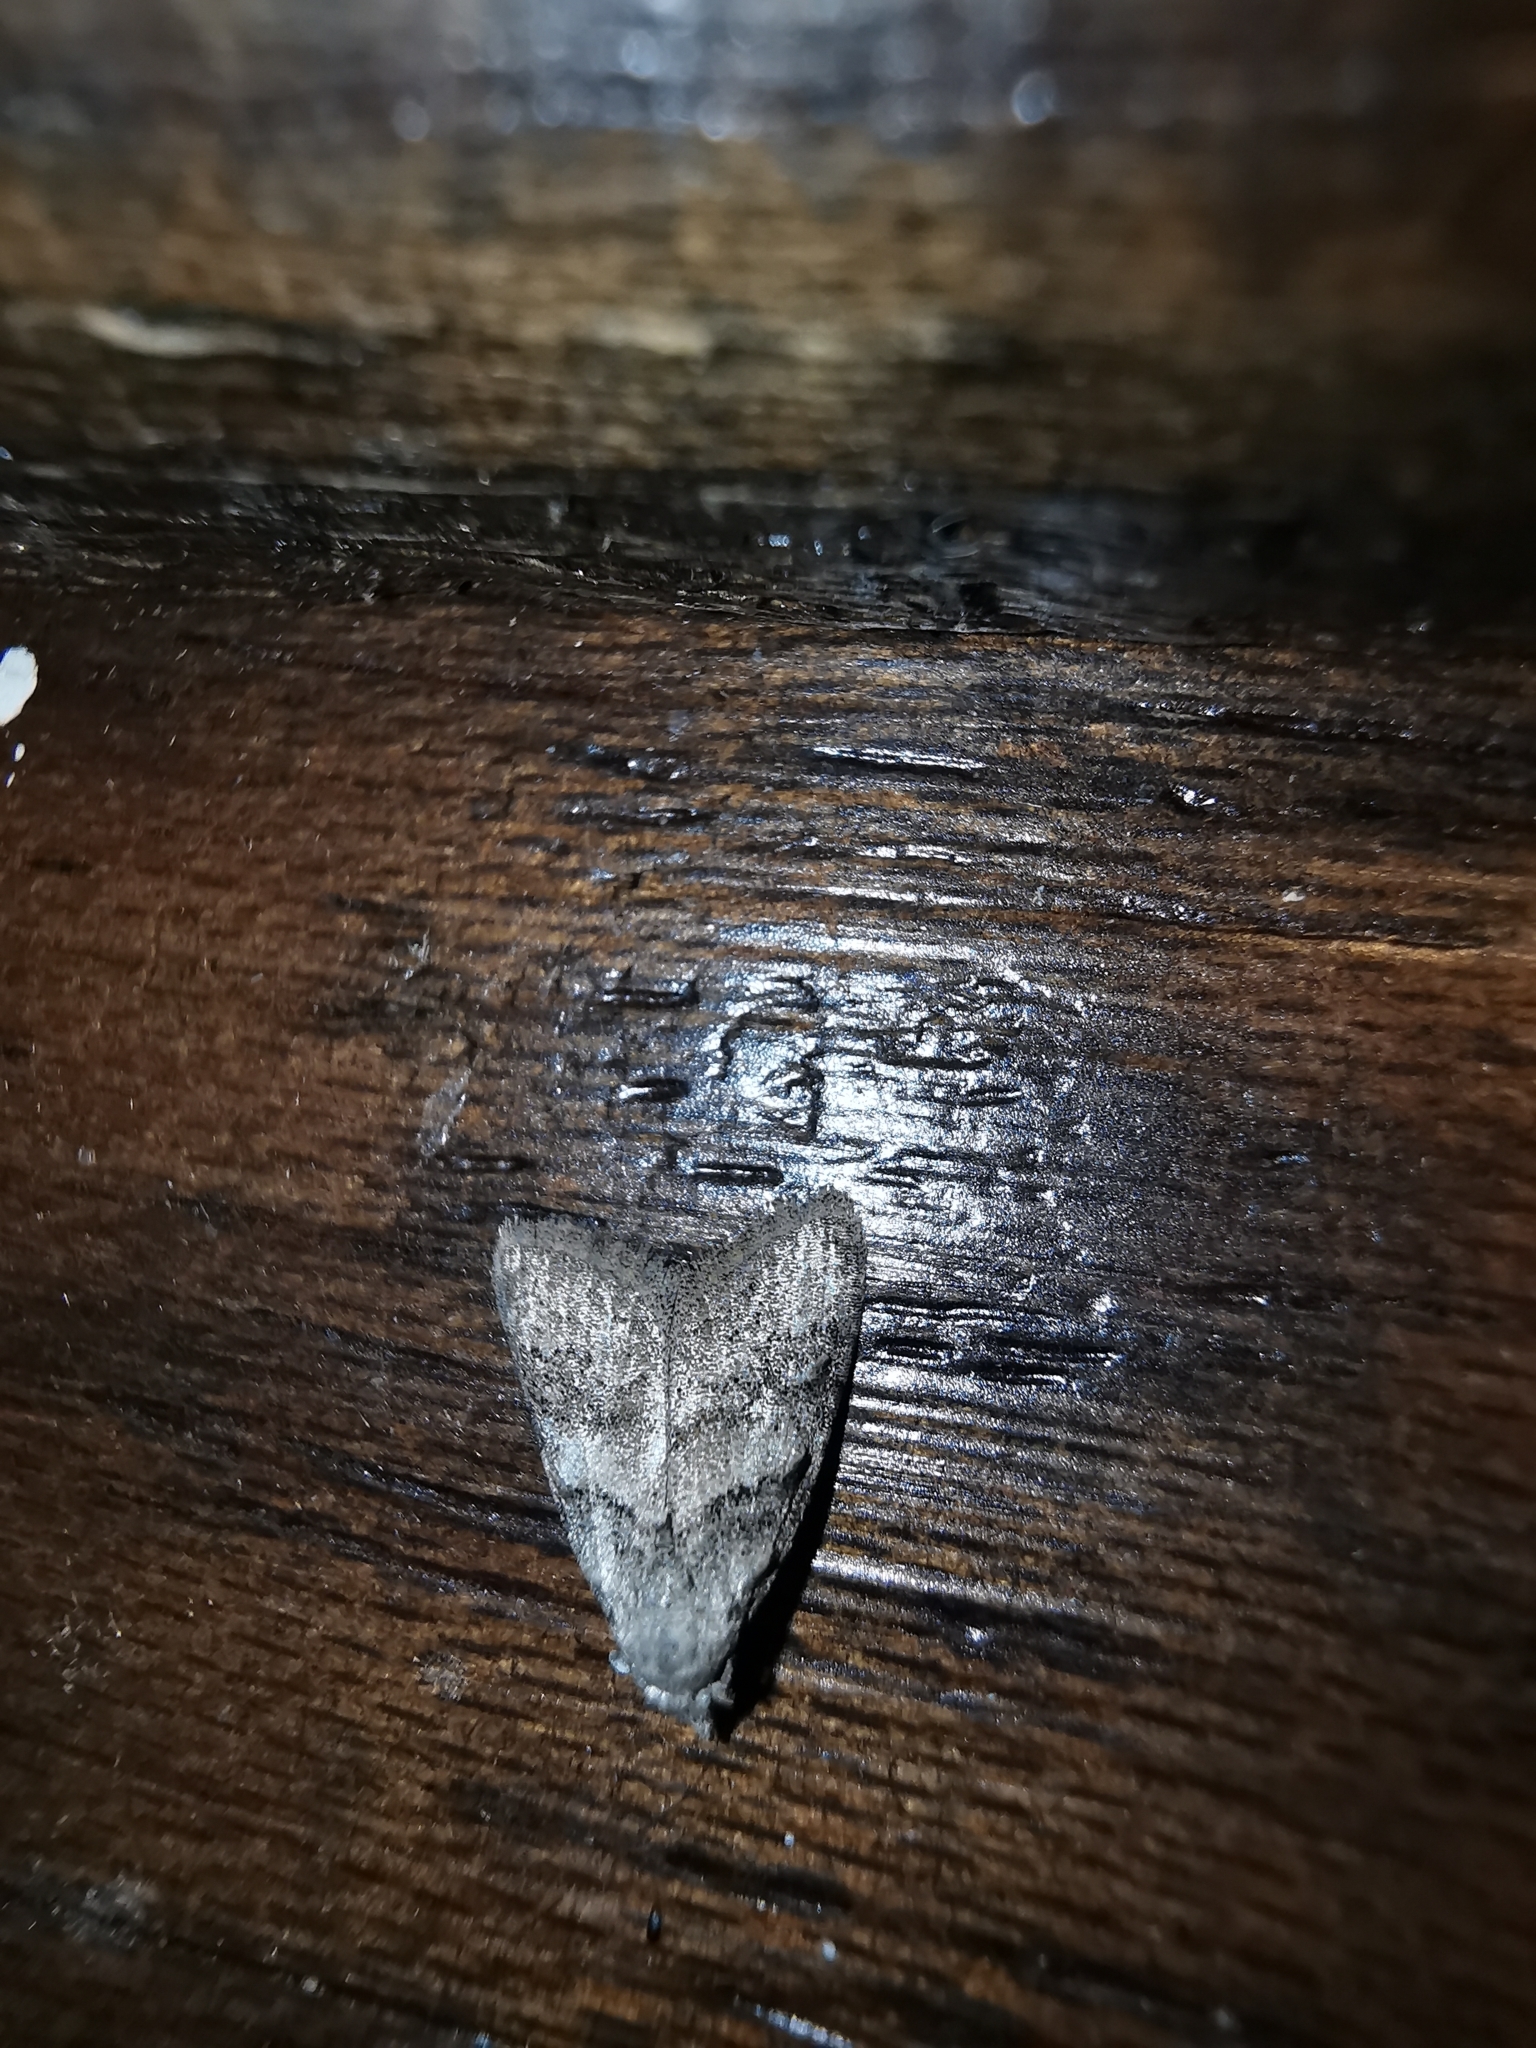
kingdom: Animalia
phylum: Arthropoda
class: Insecta
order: Lepidoptera
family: Nolidae
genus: Nola
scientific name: Nola harouni
